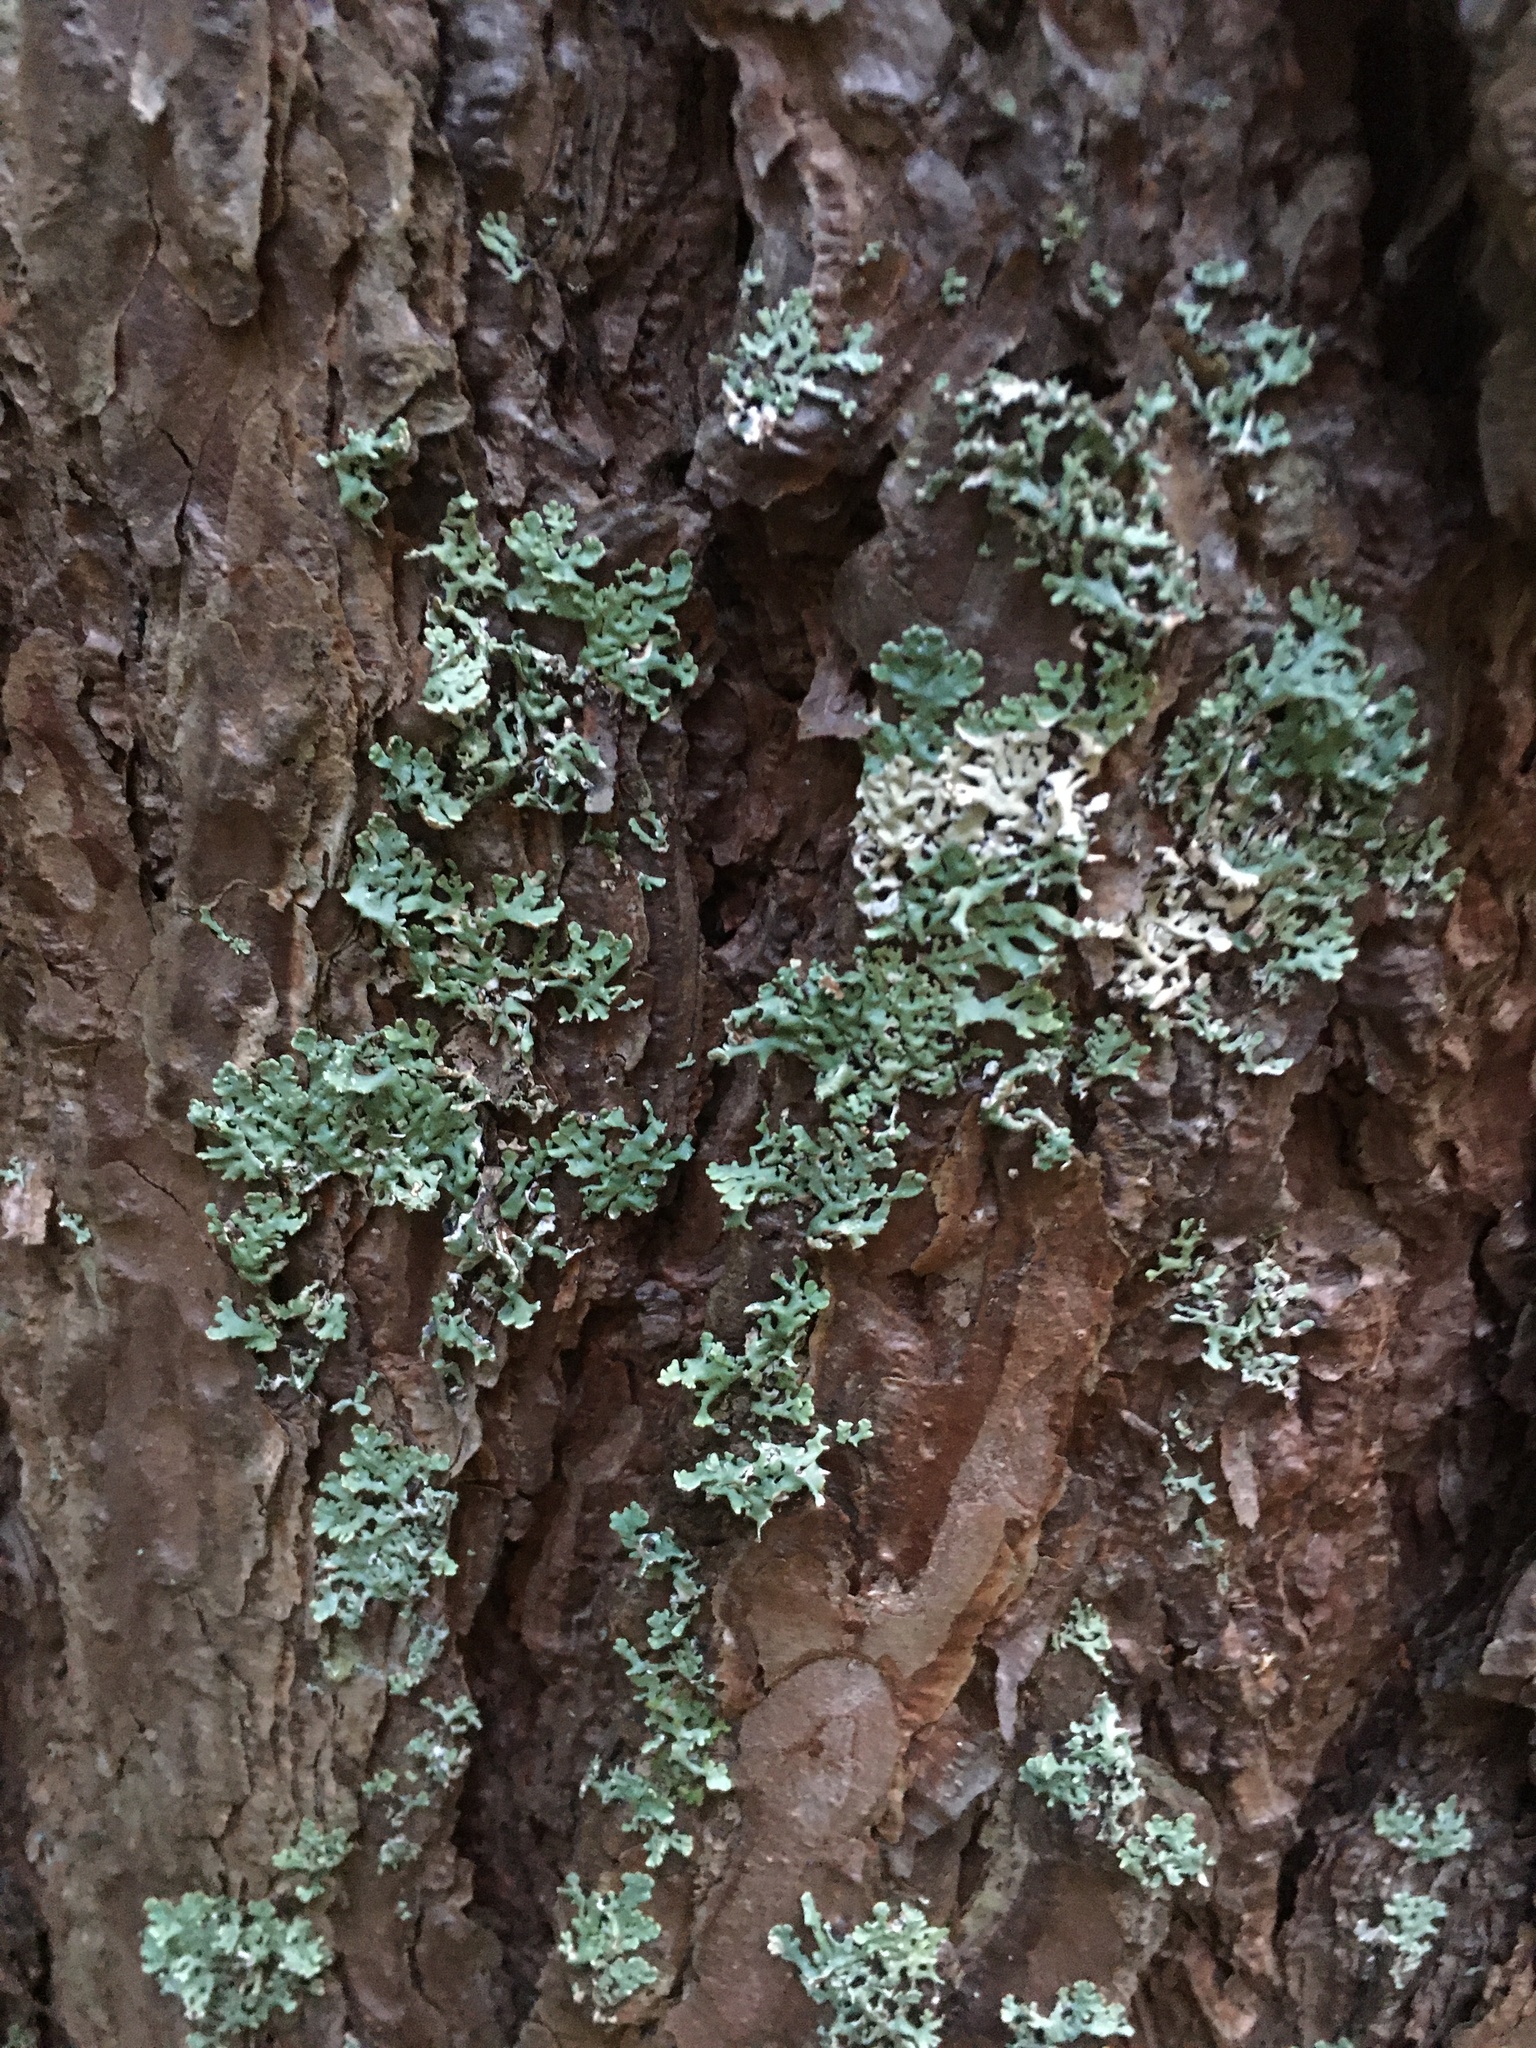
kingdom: Fungi
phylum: Ascomycota
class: Lecanoromycetes
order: Lecanorales
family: Parmeliaceae
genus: Hypogymnia
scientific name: Hypogymnia physodes
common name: Dark crottle
